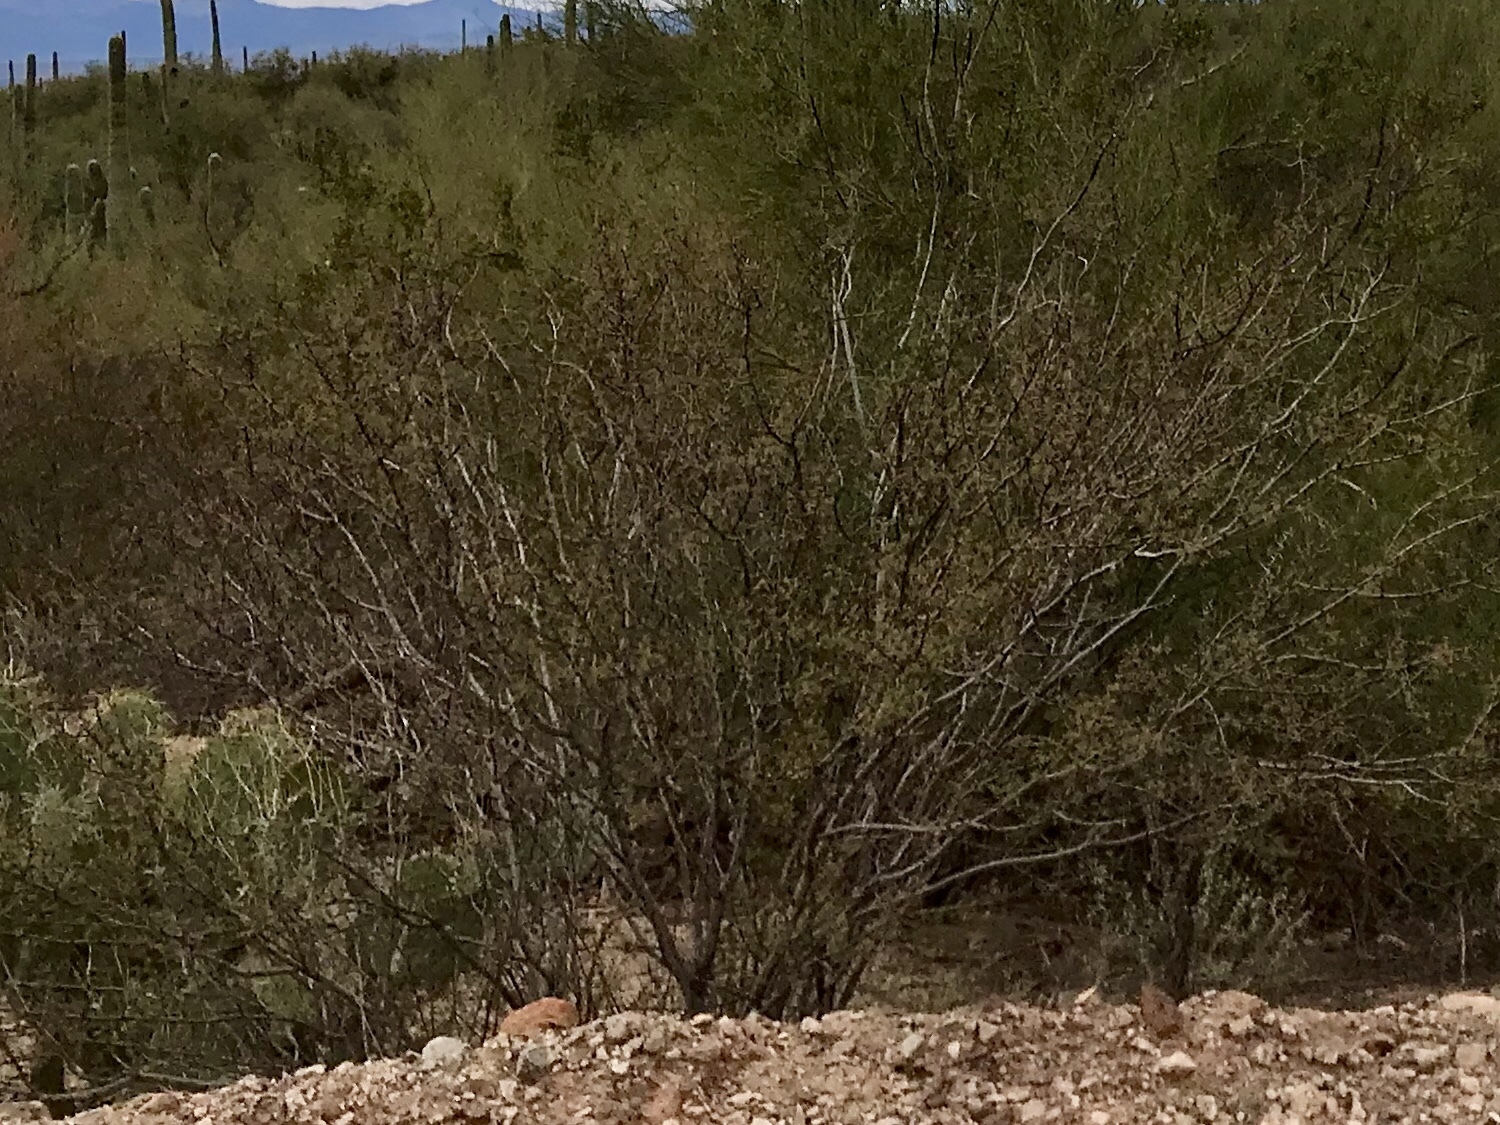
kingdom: Plantae
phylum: Tracheophyta
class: Magnoliopsida
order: Zygophyllales
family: Zygophyllaceae
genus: Larrea
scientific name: Larrea tridentata
